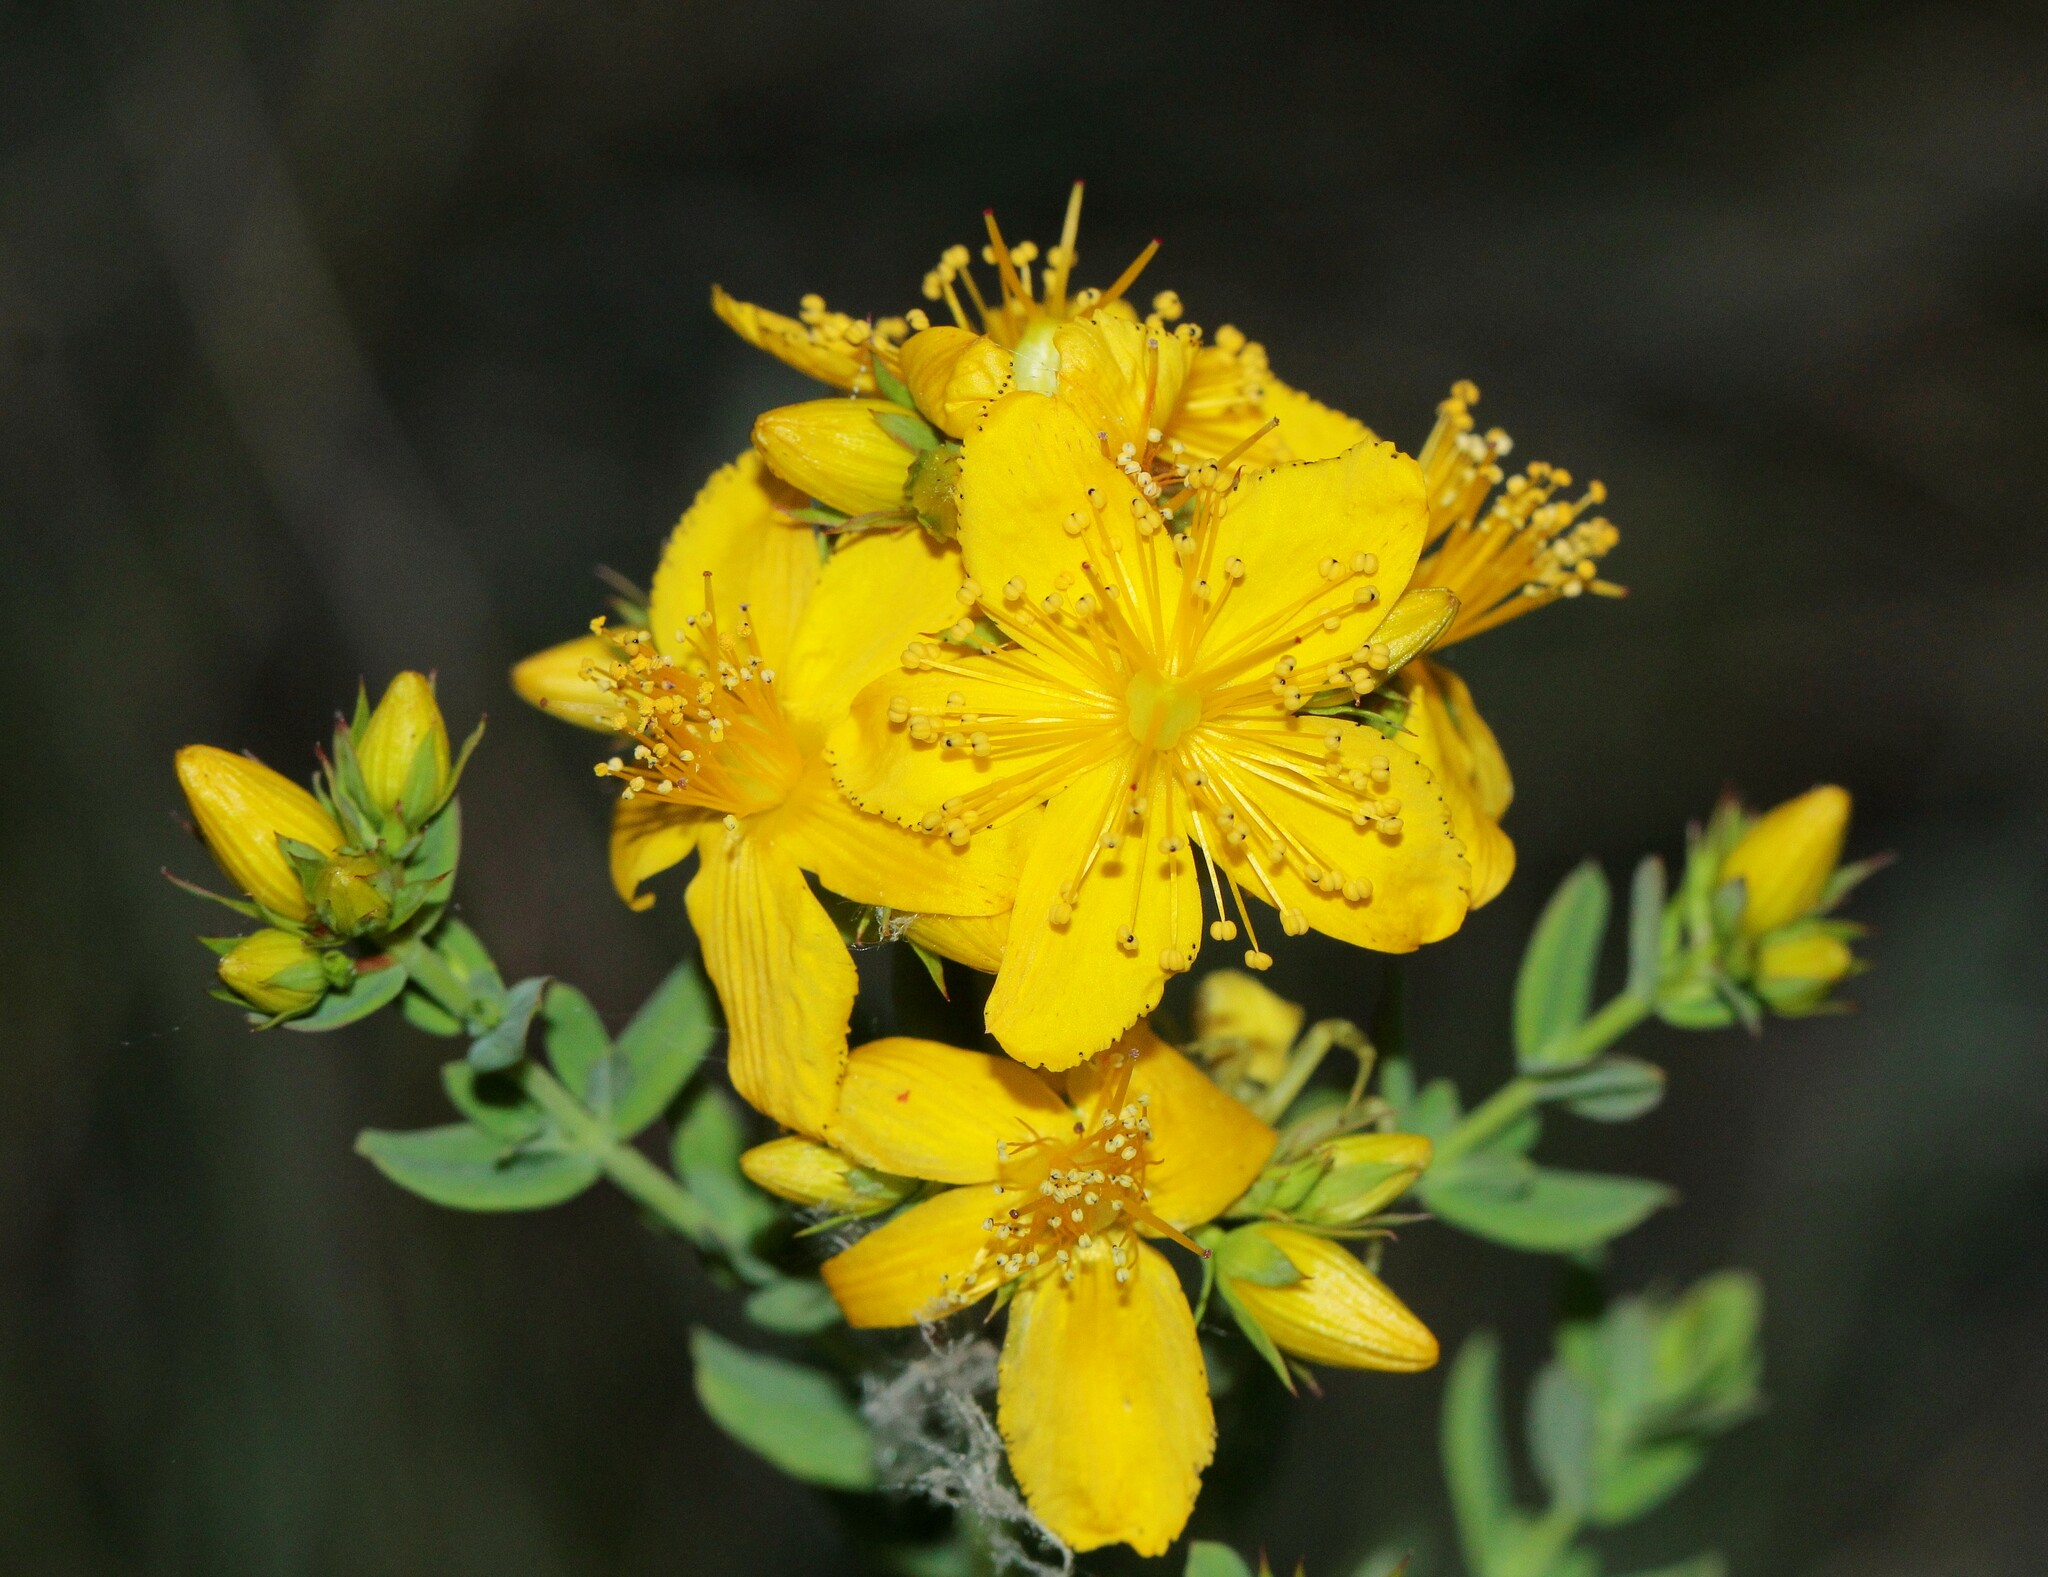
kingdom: Plantae
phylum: Tracheophyta
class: Magnoliopsida
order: Malpighiales
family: Hypericaceae
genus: Hypericum
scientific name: Hypericum perforatum
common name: Common st. johnswort
